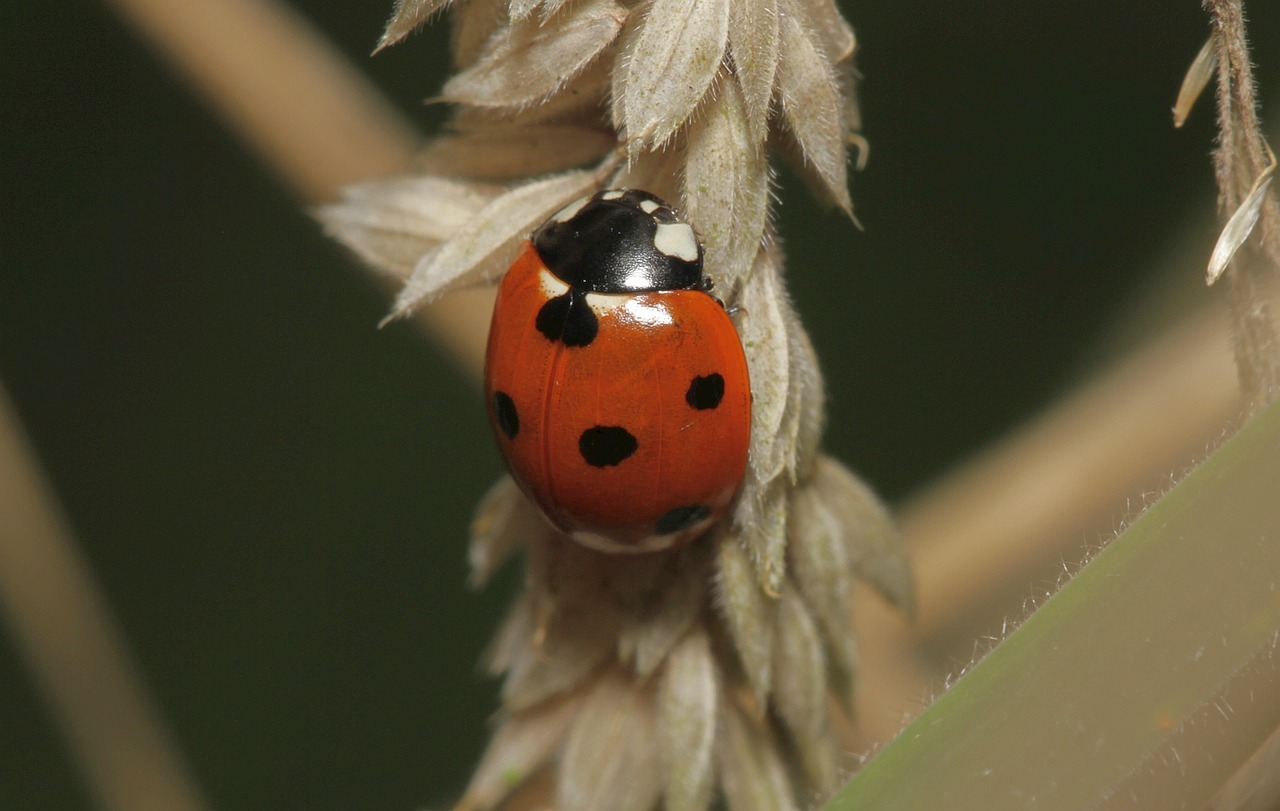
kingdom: Animalia
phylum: Arthropoda
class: Insecta
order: Coleoptera
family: Coccinellidae
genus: Coccinella
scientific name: Coccinella septempunctata
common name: Sevenspotted lady beetle
